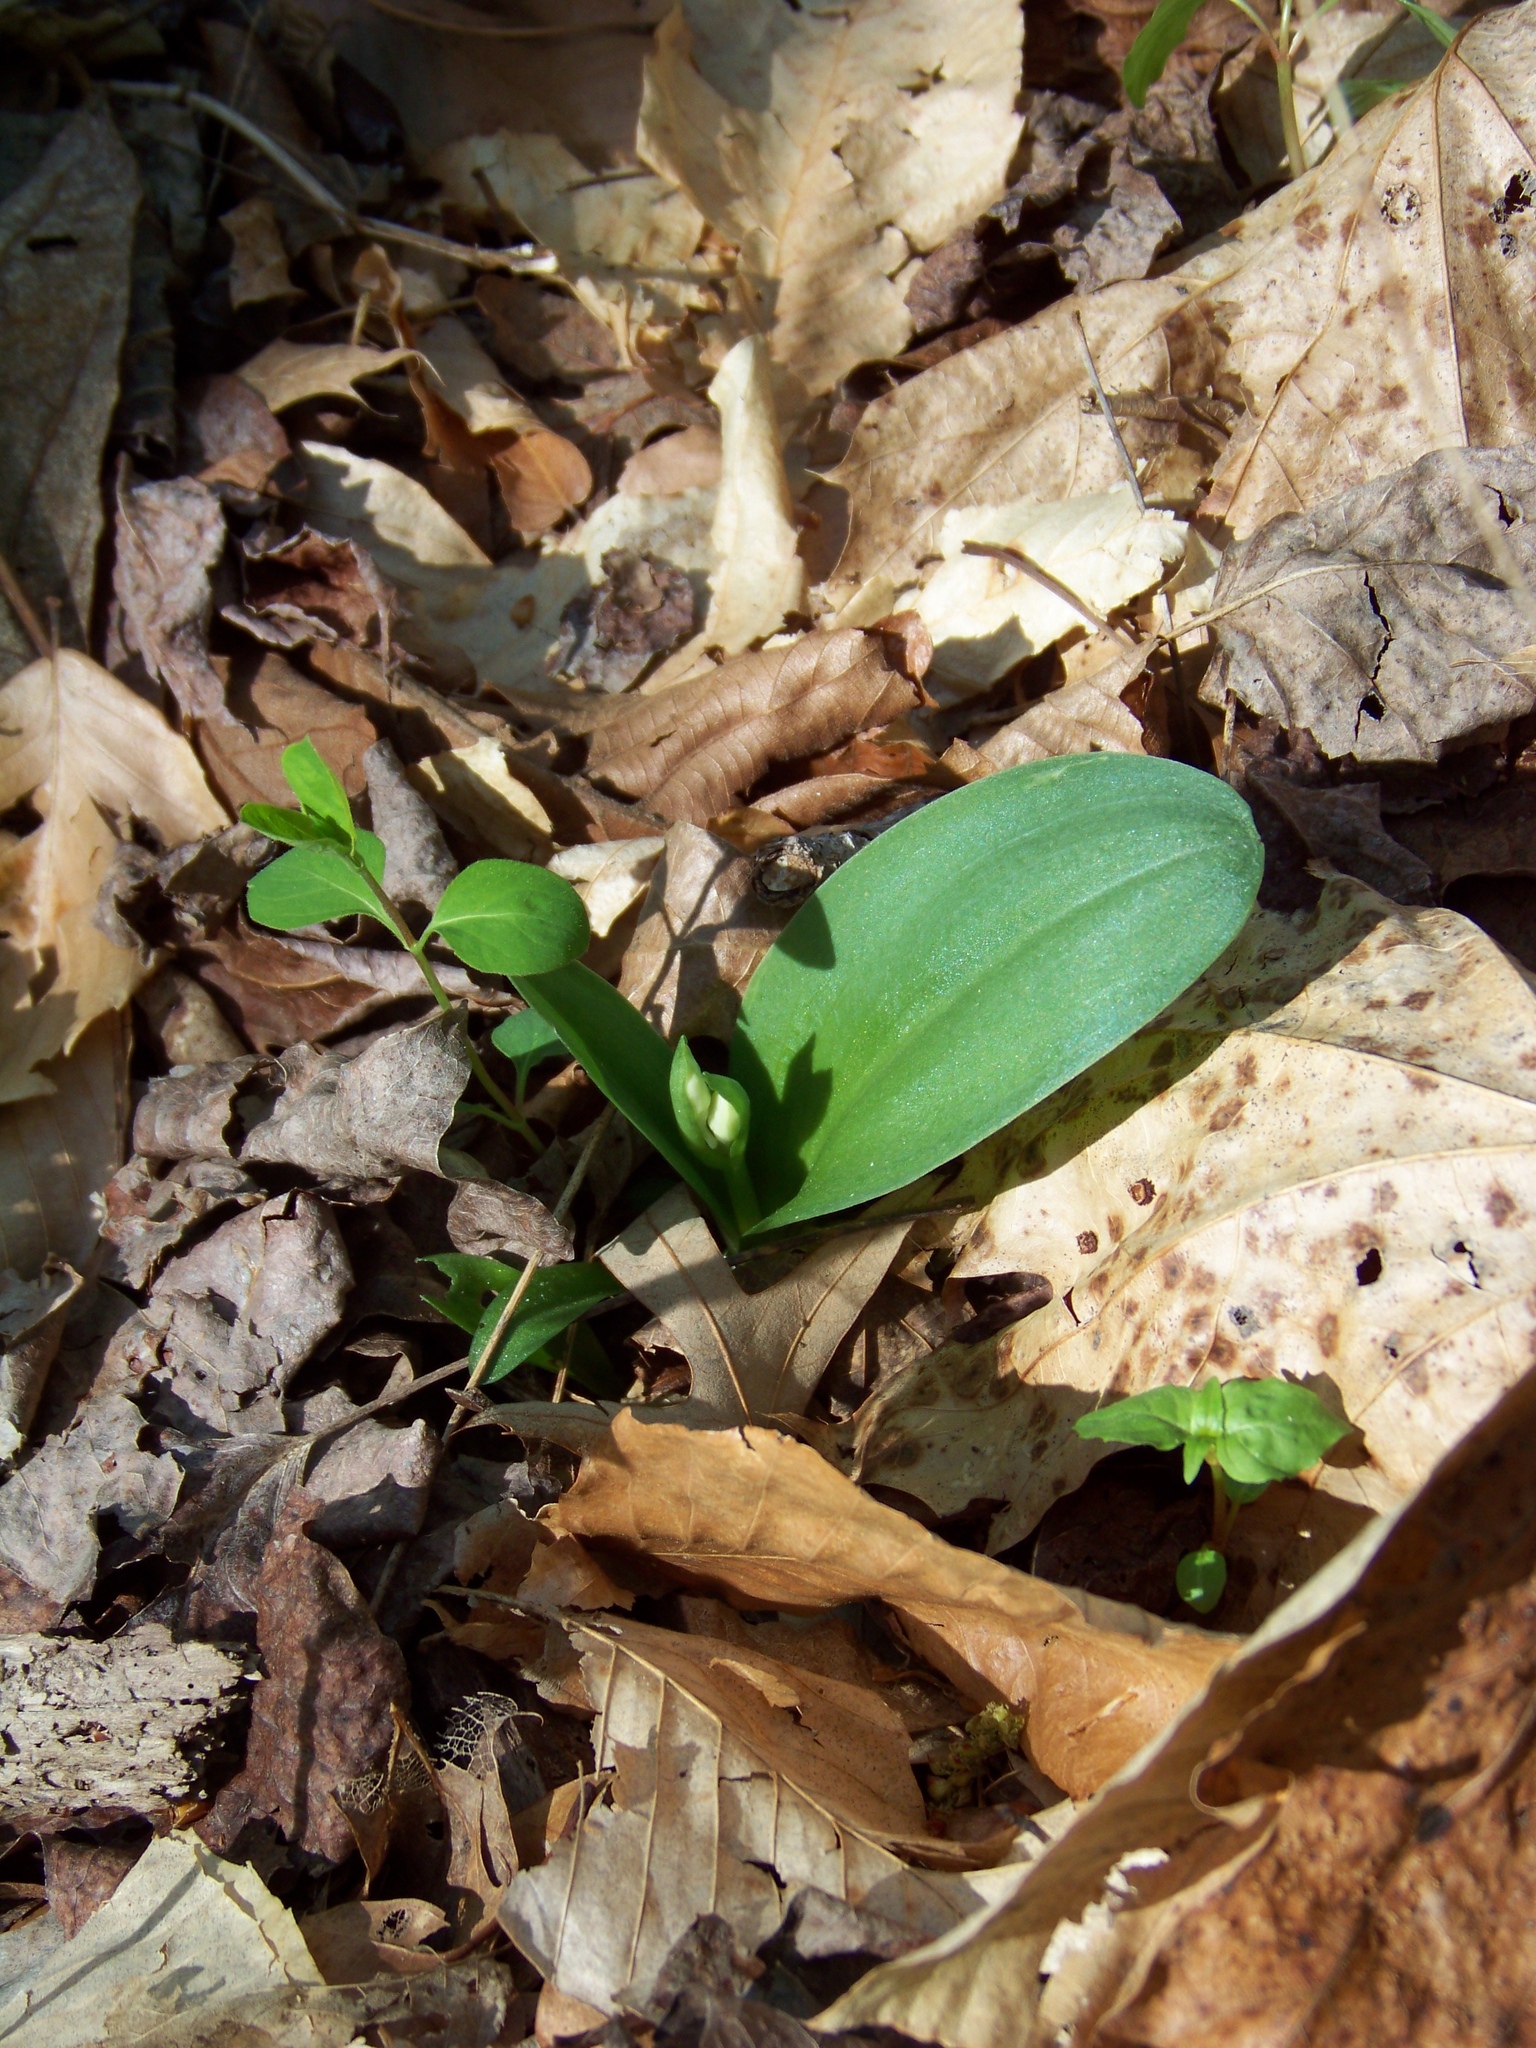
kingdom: Plantae
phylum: Tracheophyta
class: Liliopsida
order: Asparagales
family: Orchidaceae
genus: Galearis
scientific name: Galearis spectabilis
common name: Purple-hooded orchis
